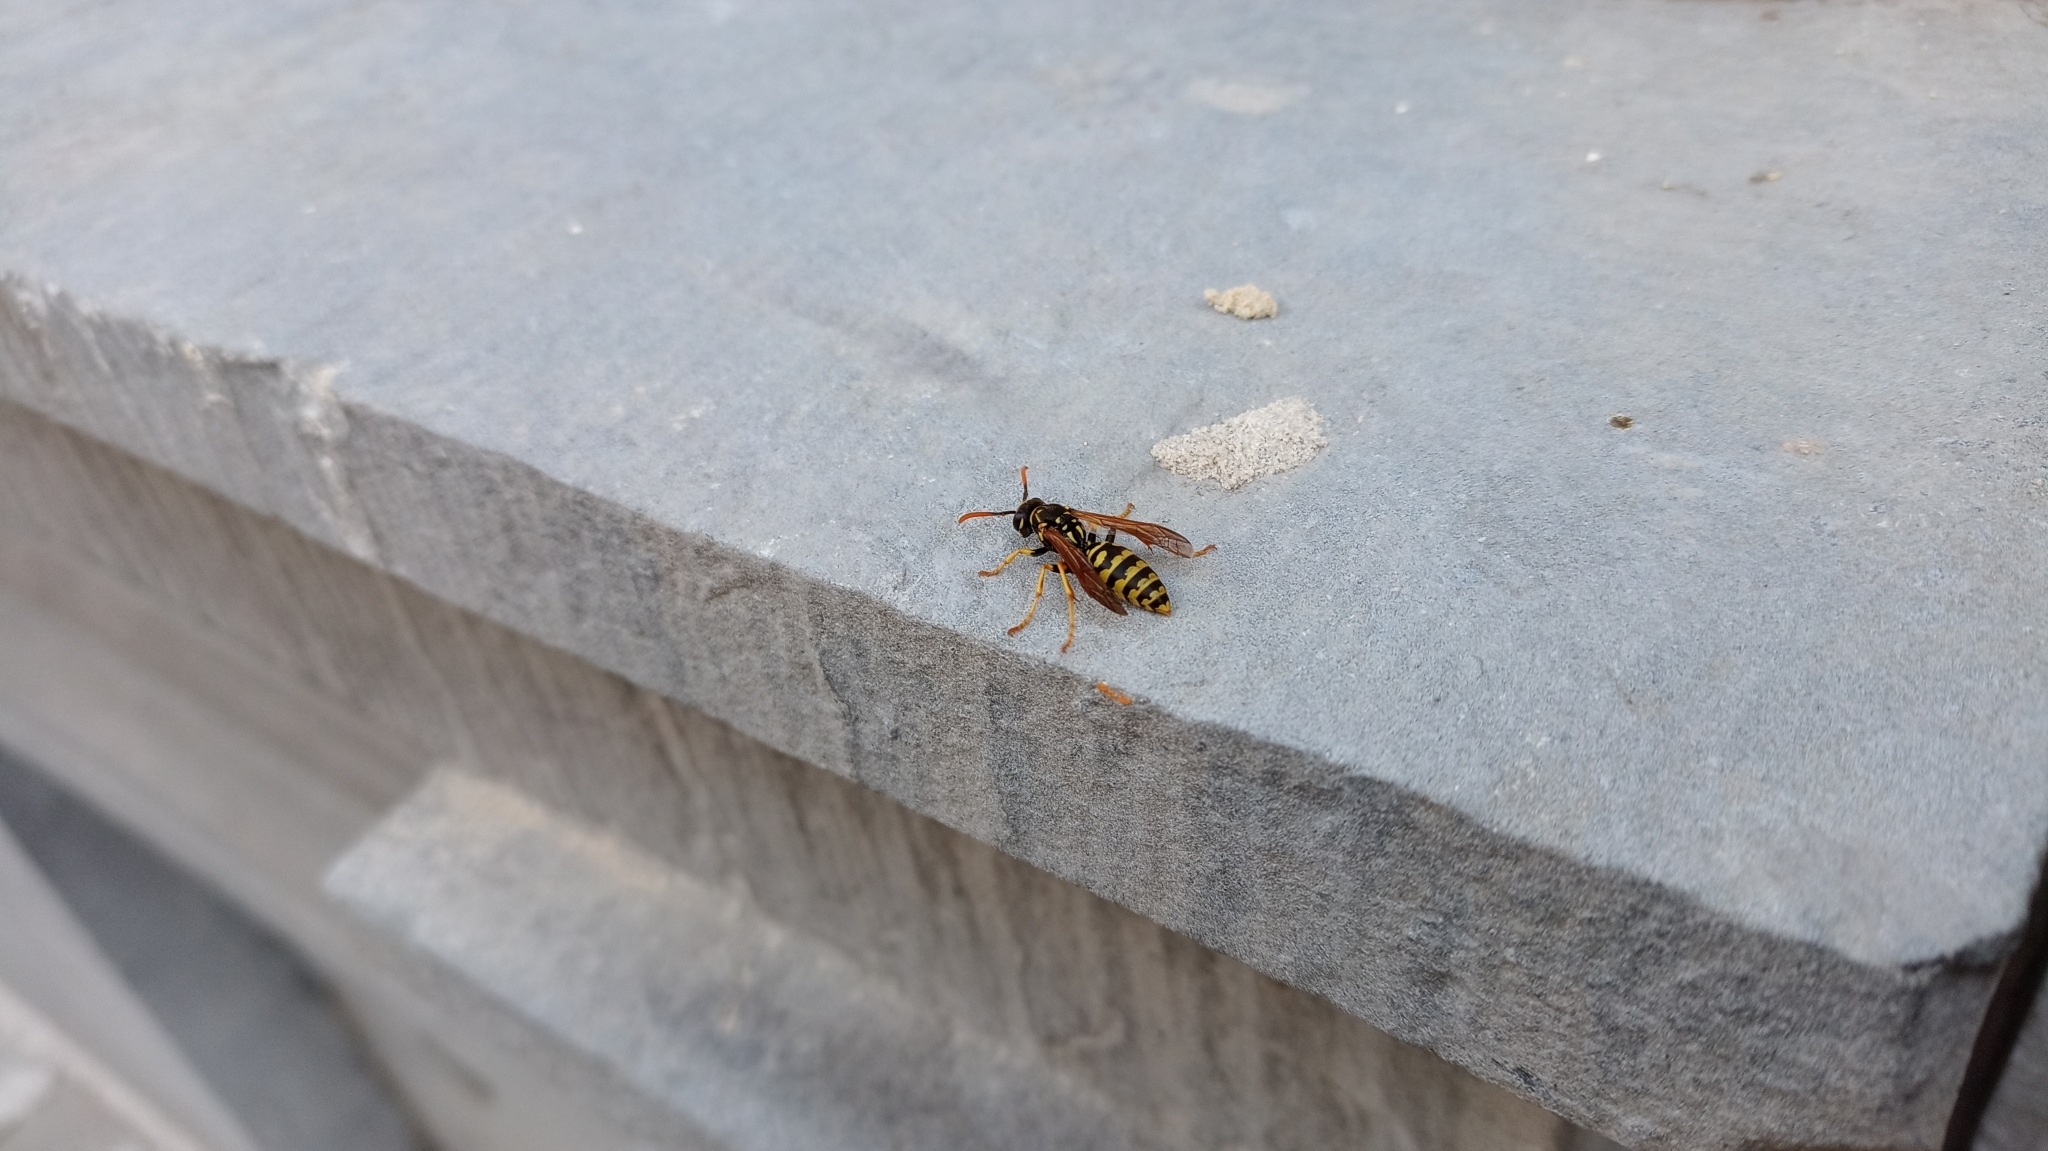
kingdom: Animalia
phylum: Arthropoda
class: Insecta
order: Hymenoptera
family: Eumenidae
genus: Polistes
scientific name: Polistes dominula
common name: Paper wasp
